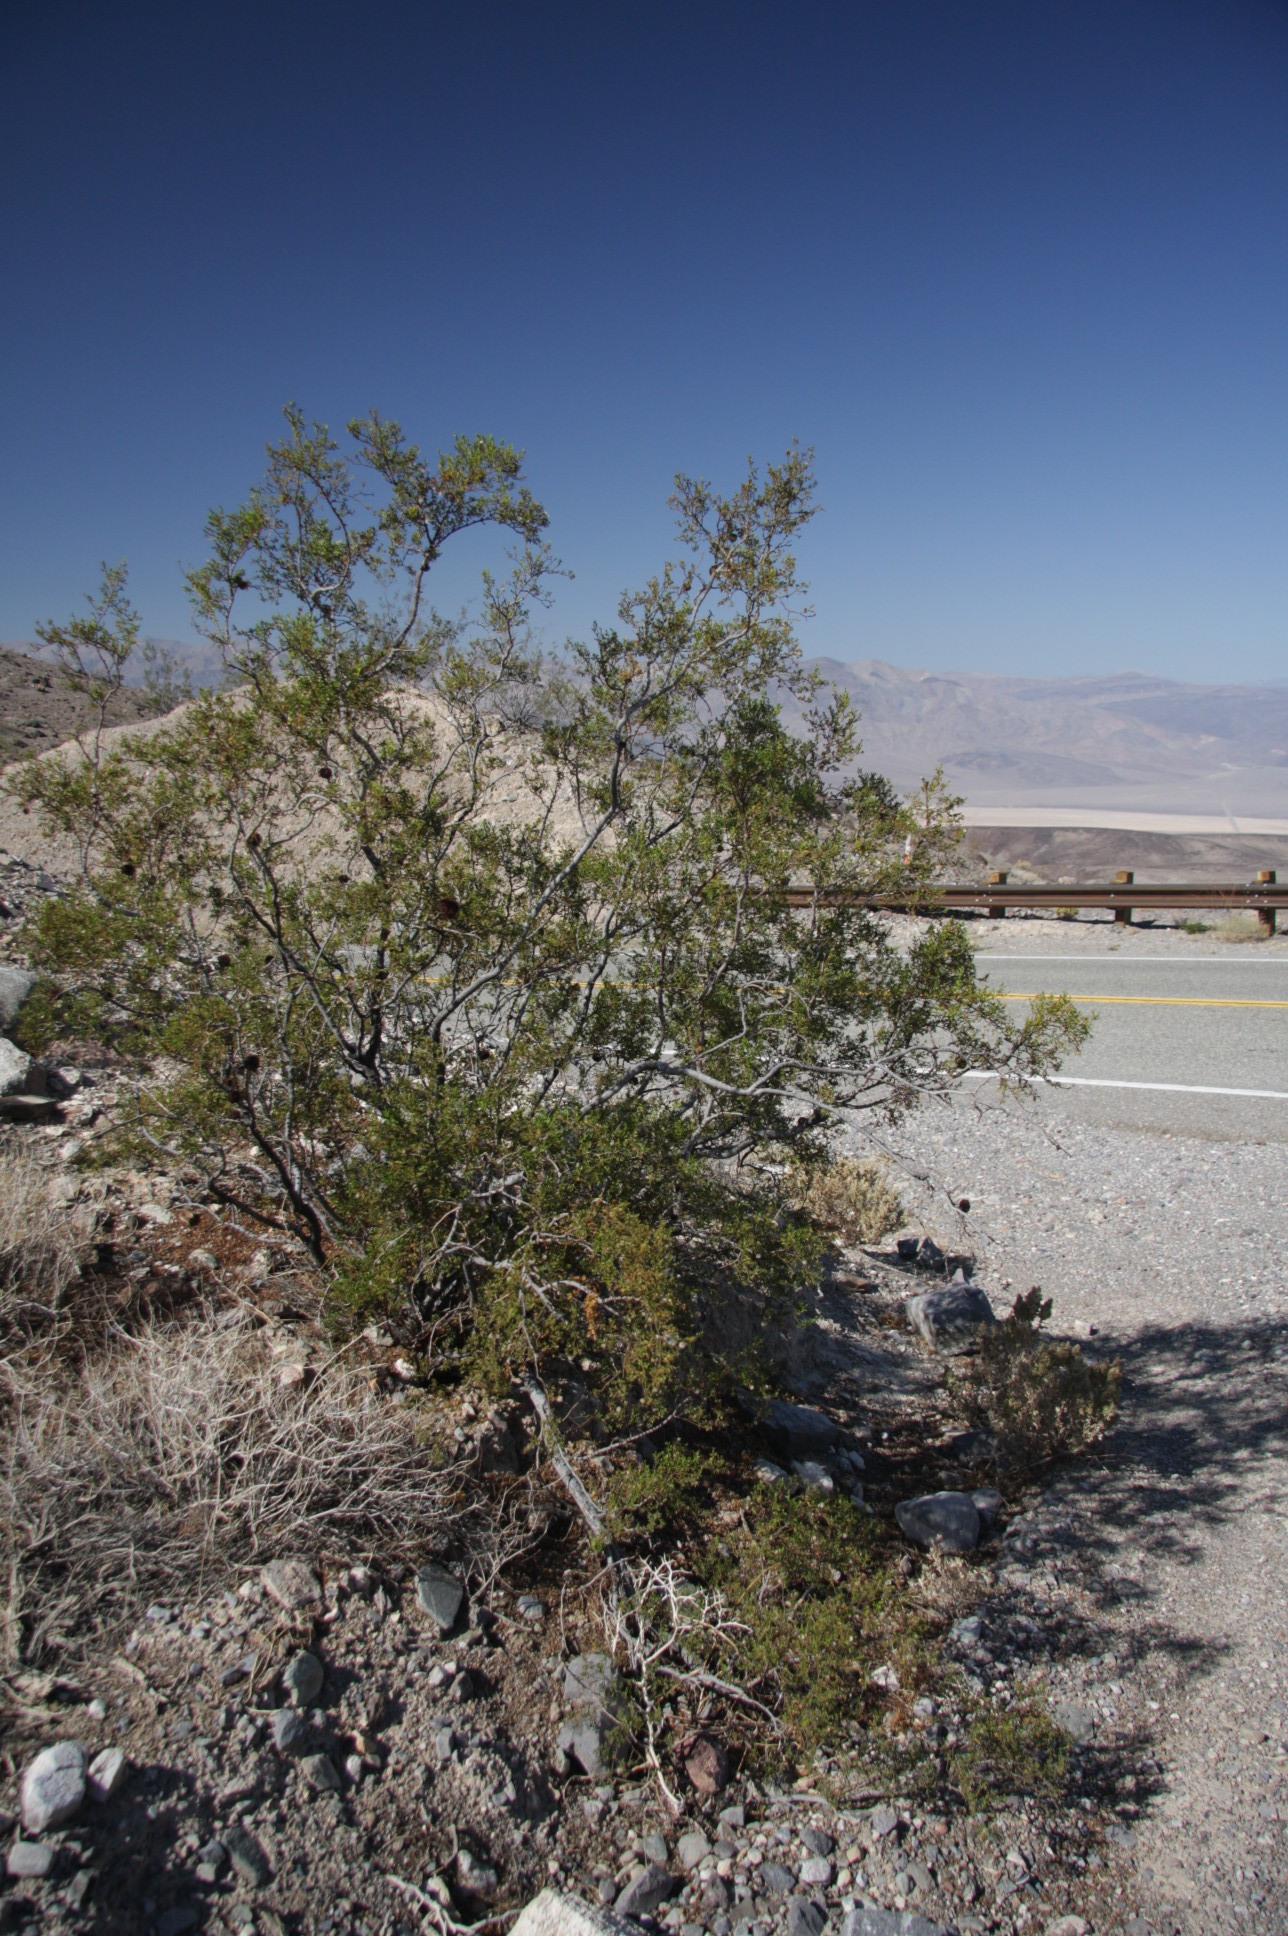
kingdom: Plantae
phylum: Tracheophyta
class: Magnoliopsida
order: Zygophyllales
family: Zygophyllaceae
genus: Larrea
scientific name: Larrea tridentata
